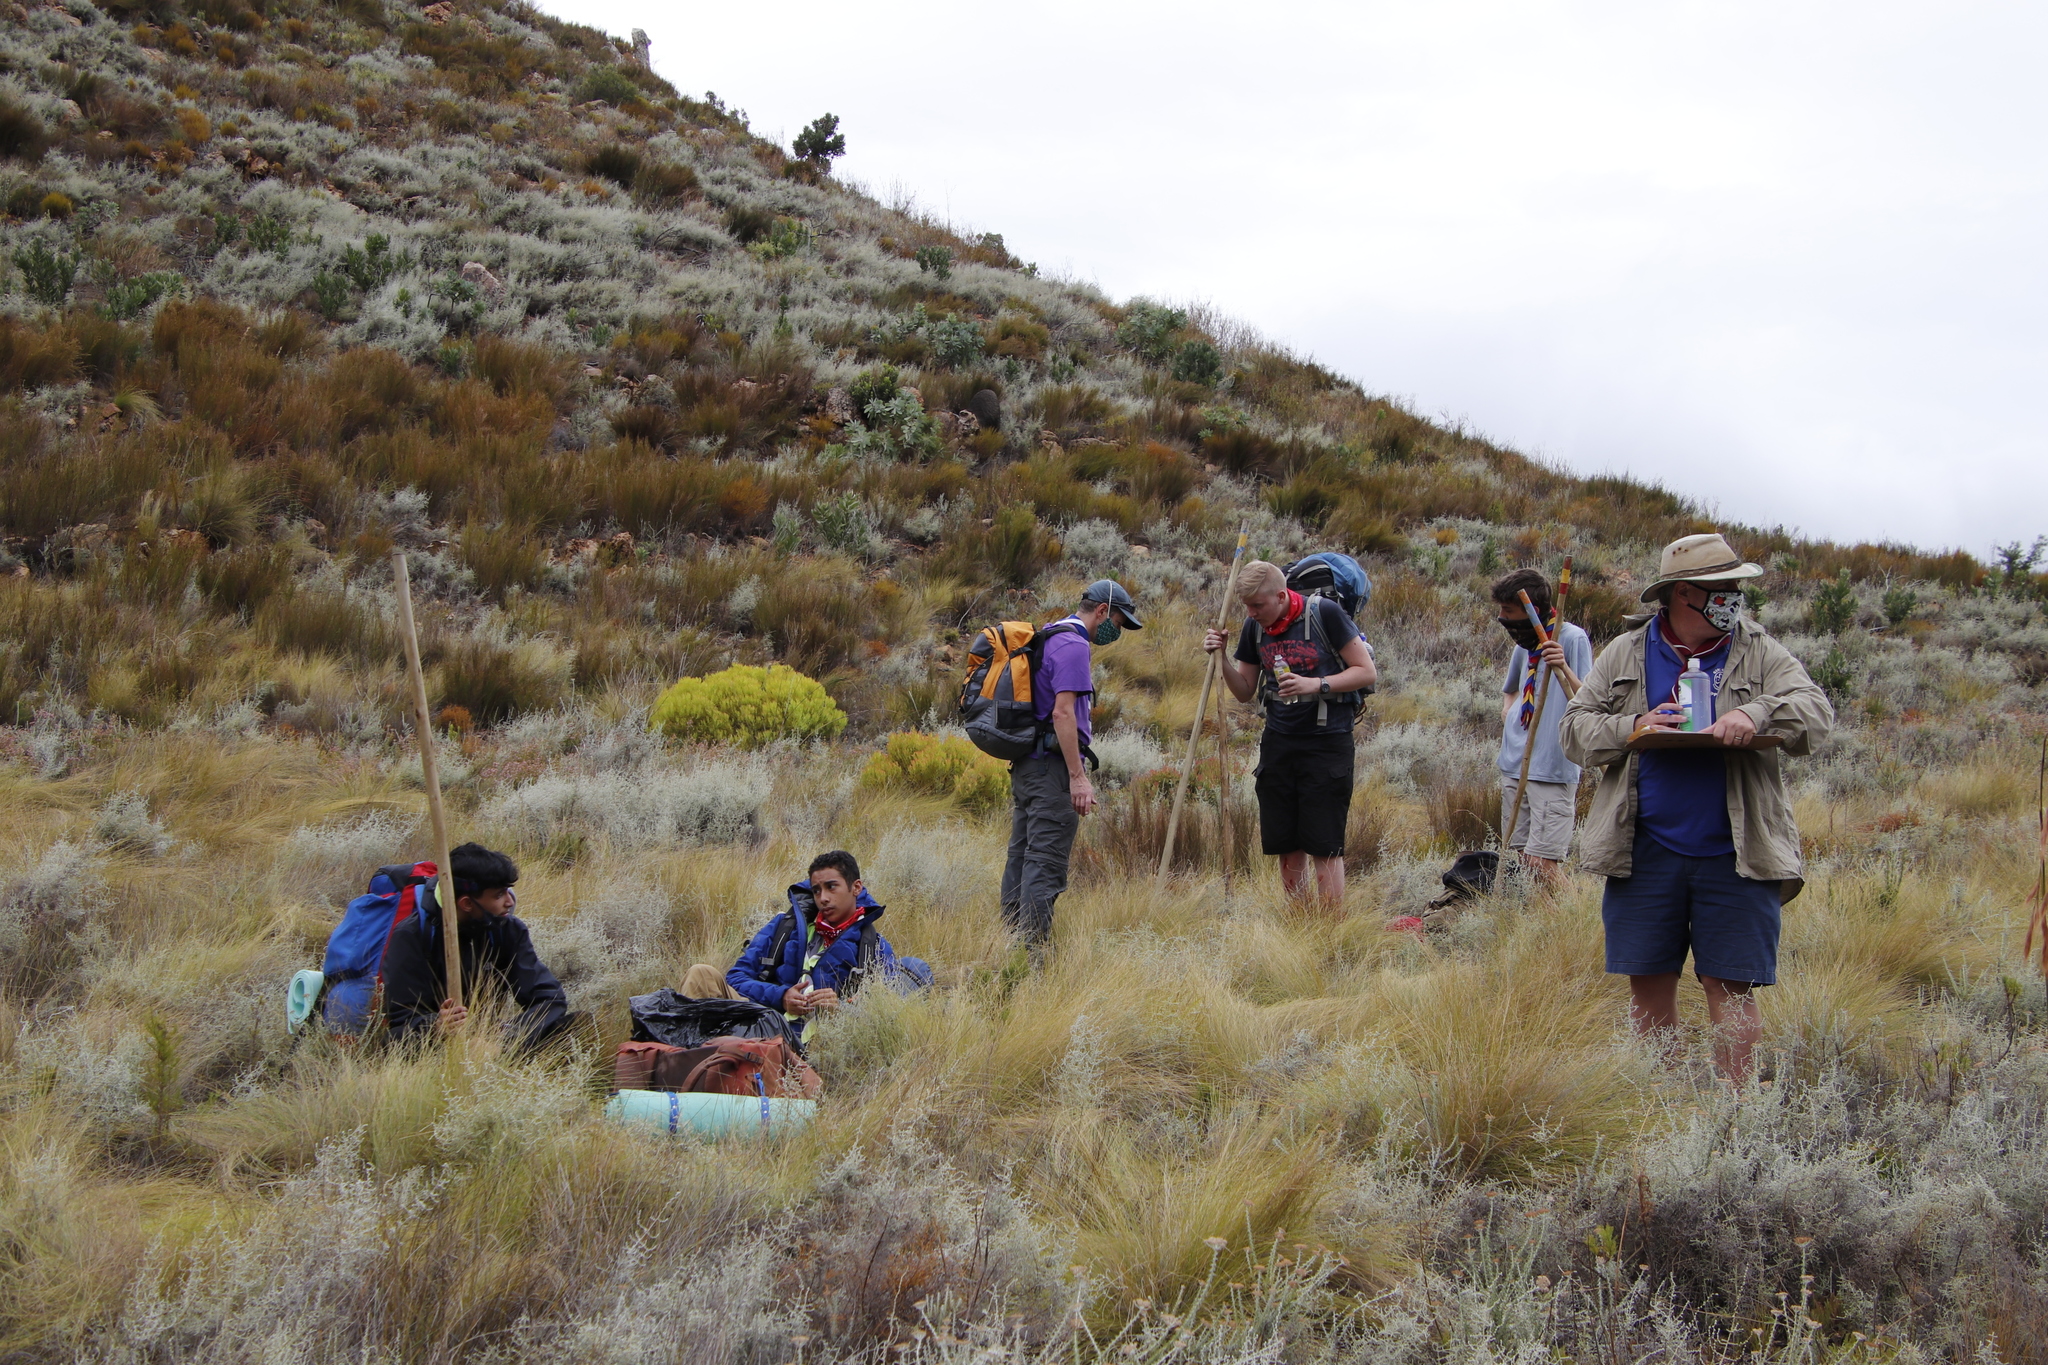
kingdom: Plantae
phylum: Tracheophyta
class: Magnoliopsida
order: Proteales
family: Proteaceae
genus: Leucadendron
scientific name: Leucadendron salignum
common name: Common sunshine conebush
